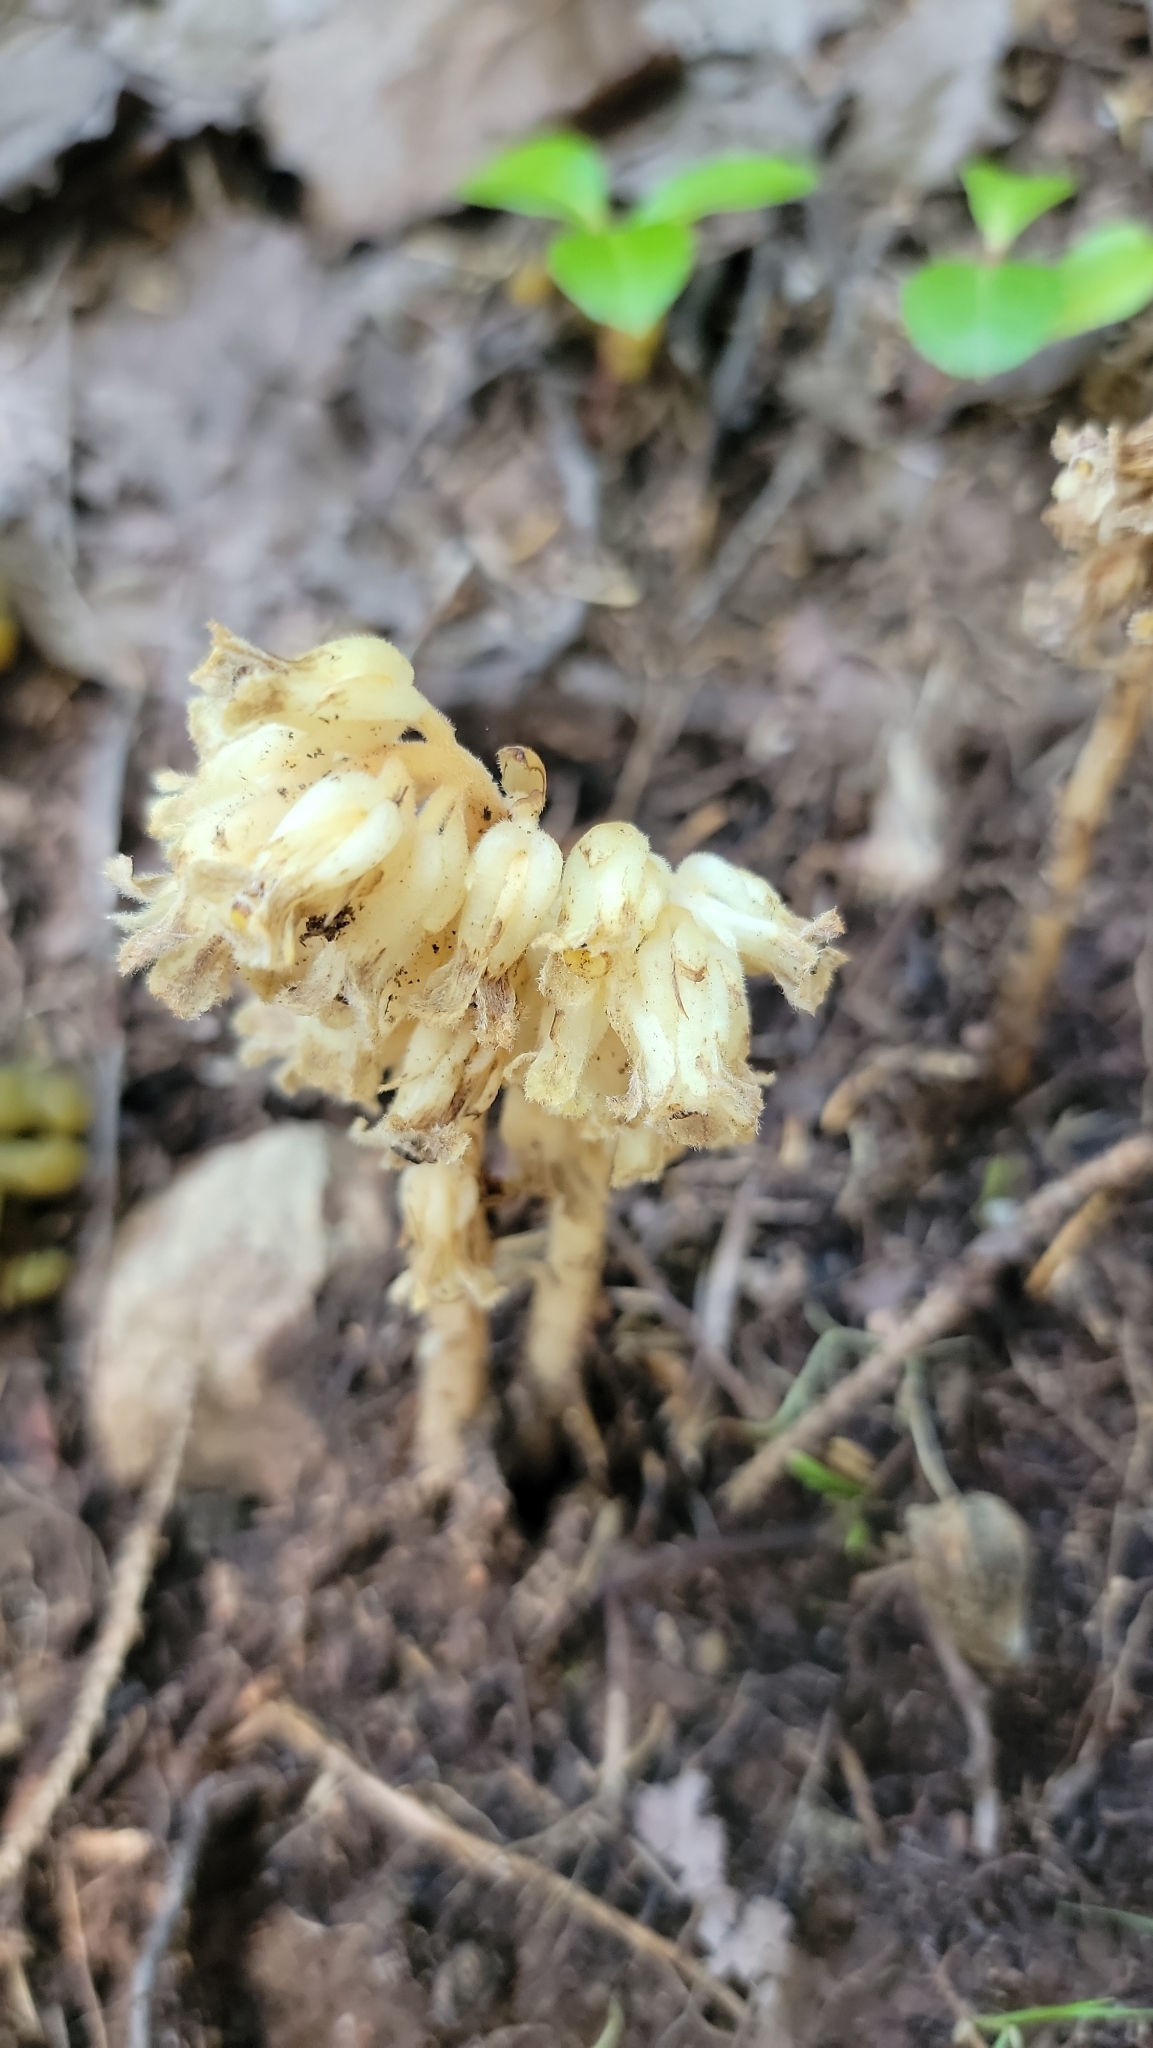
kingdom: Plantae
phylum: Tracheophyta
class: Magnoliopsida
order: Ericales
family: Ericaceae
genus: Hypopitys
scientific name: Hypopitys monotropa
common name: Yellow bird's-nest
